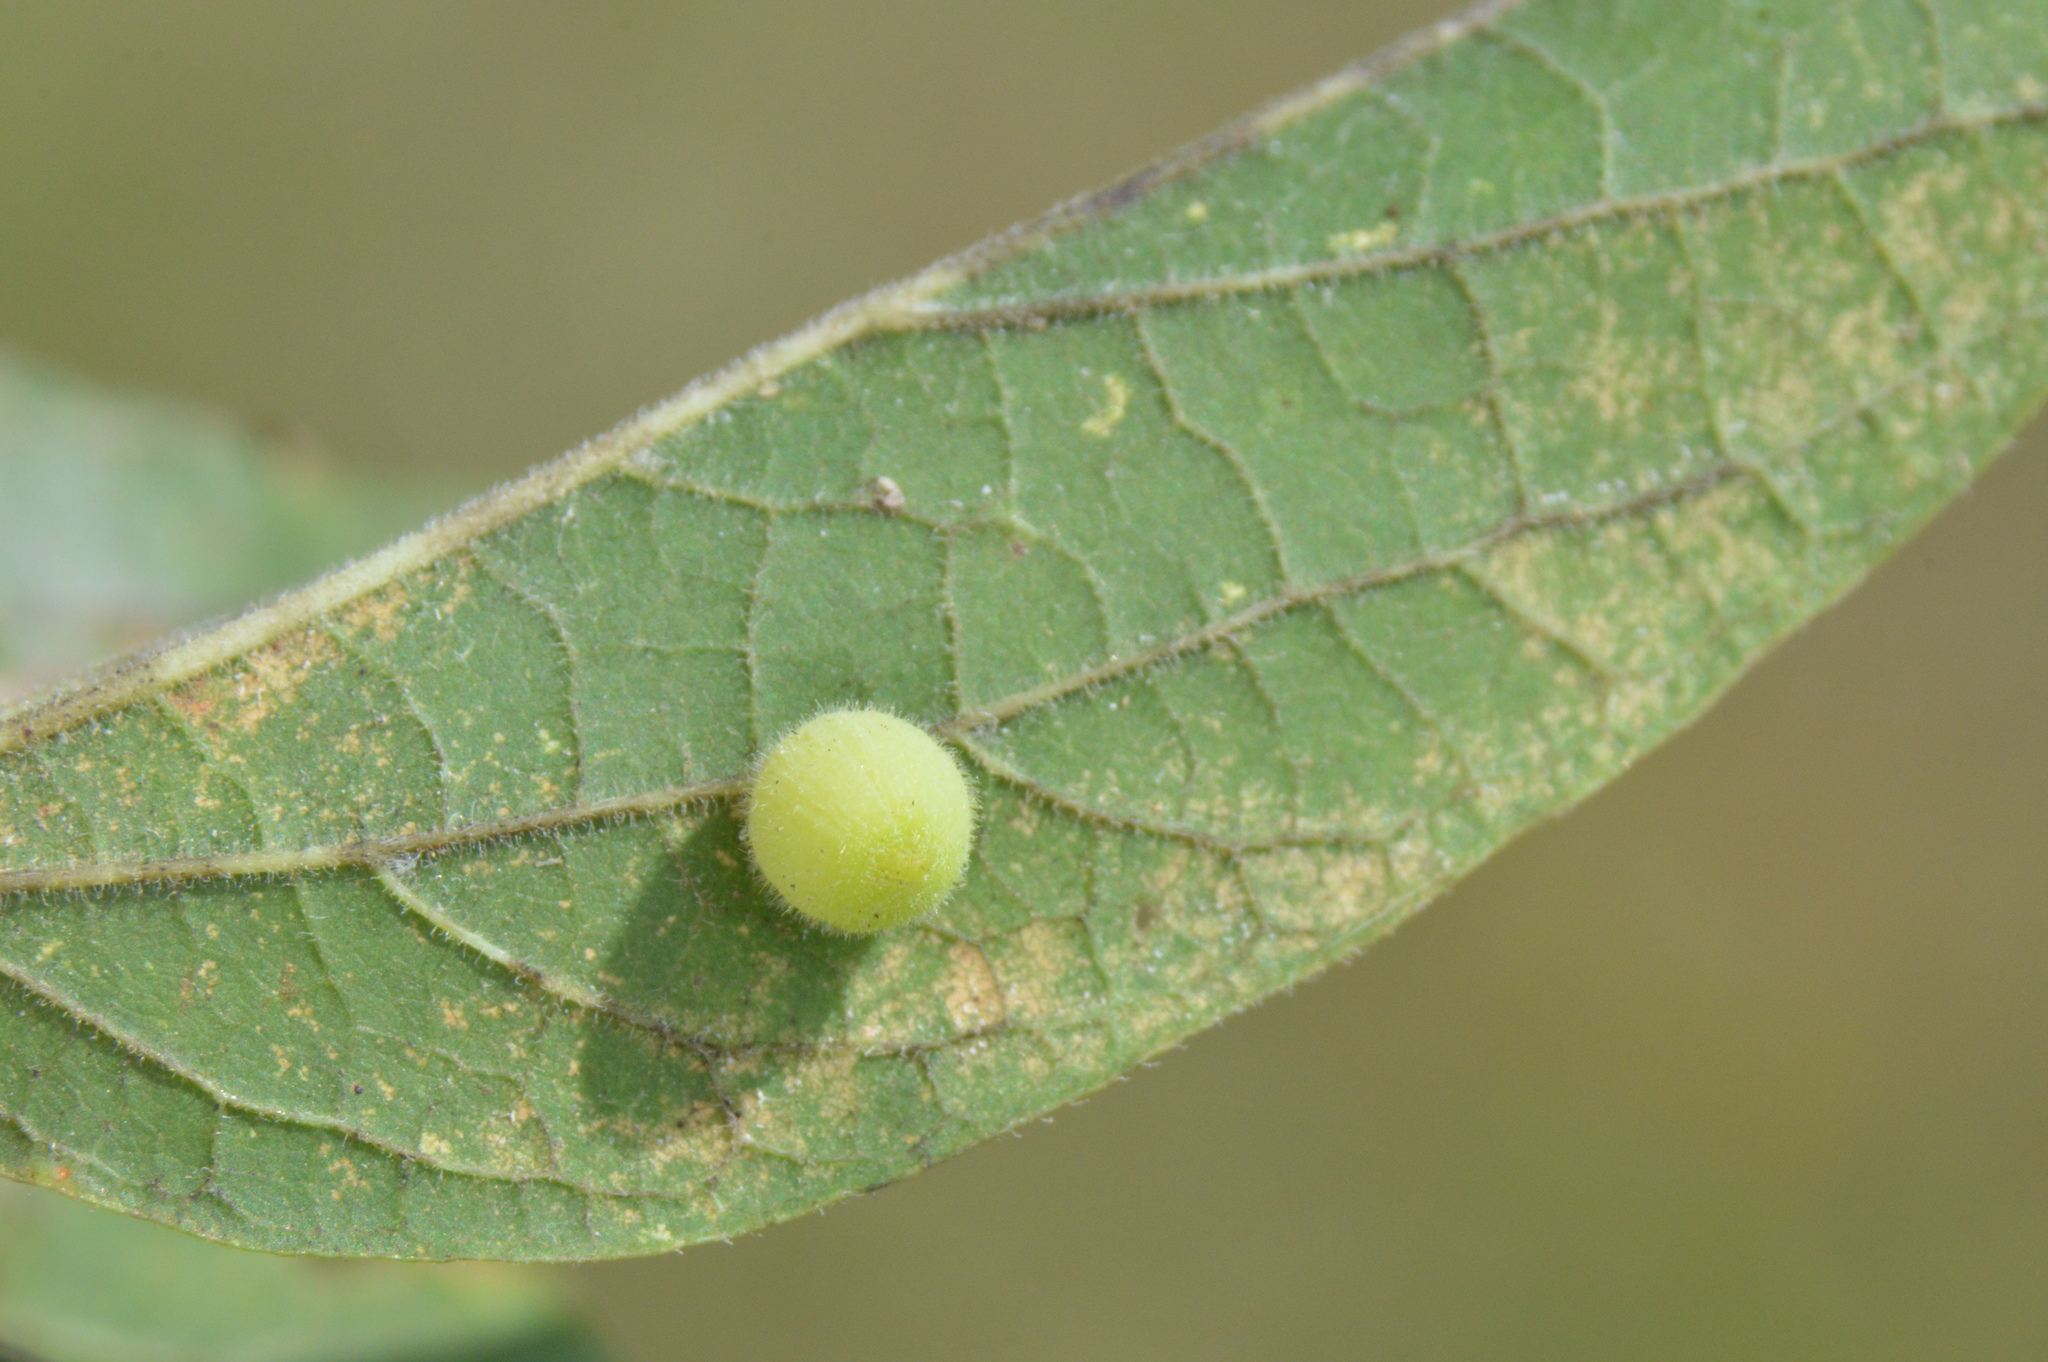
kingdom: Animalia
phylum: Arthropoda
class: Insecta
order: Diptera
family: Cecidomyiidae
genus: Celticecis
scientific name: Celticecis globosa
